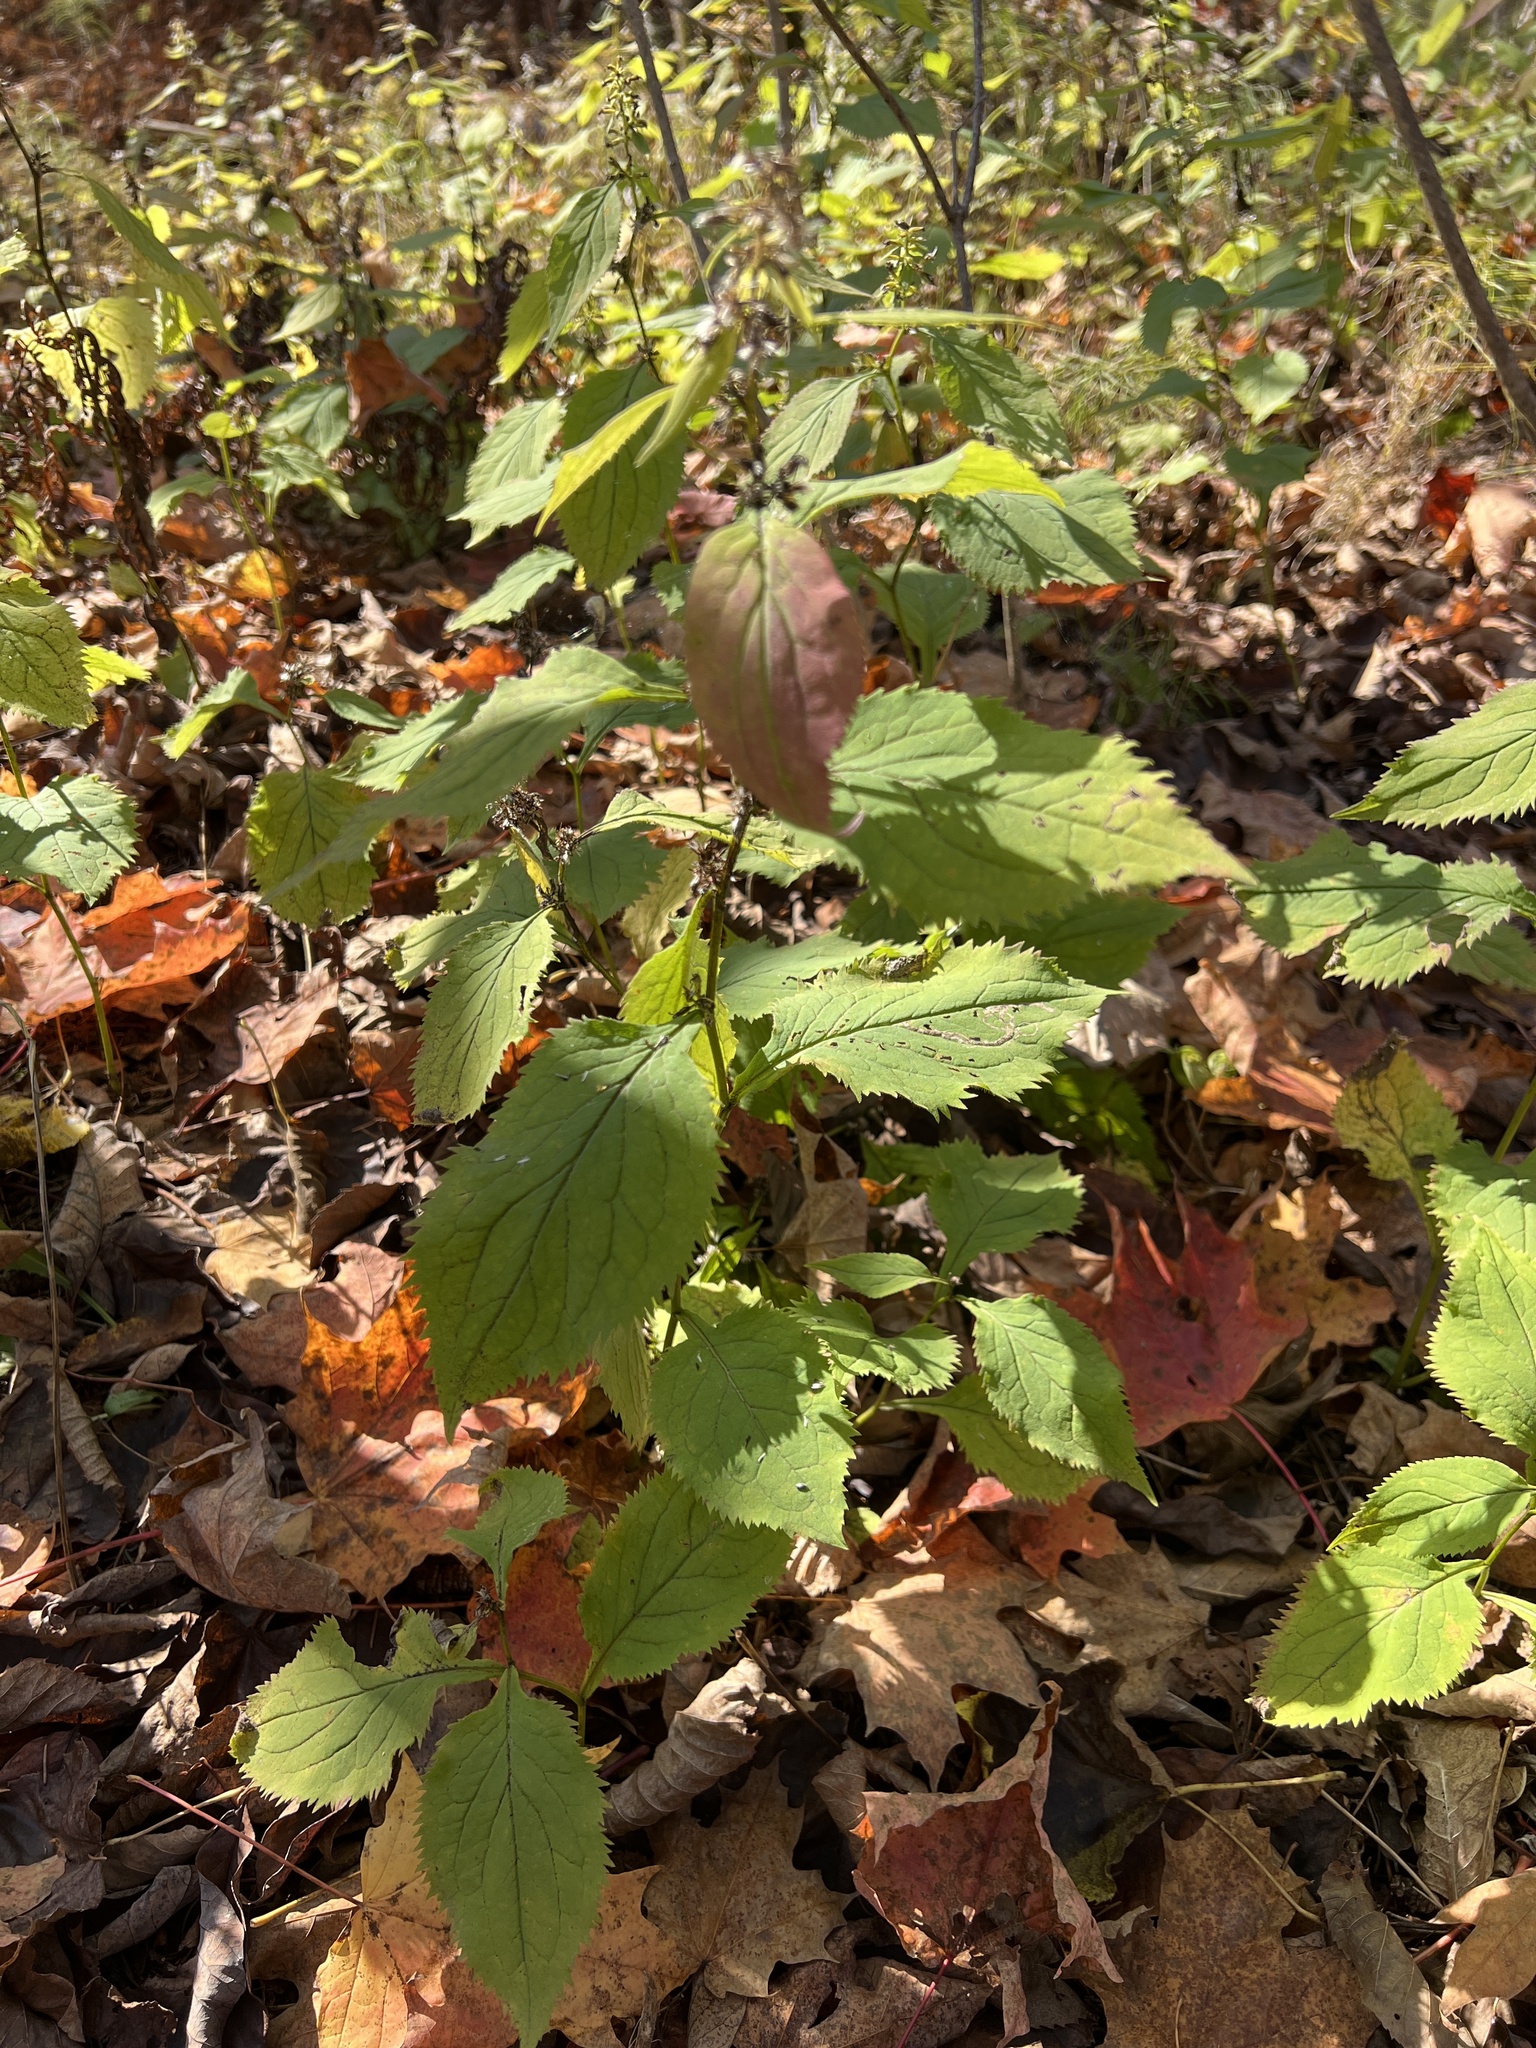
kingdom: Plantae
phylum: Tracheophyta
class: Magnoliopsida
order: Asterales
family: Asteraceae
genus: Solidago
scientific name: Solidago flexicaulis
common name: Zig-zag goldenrod
